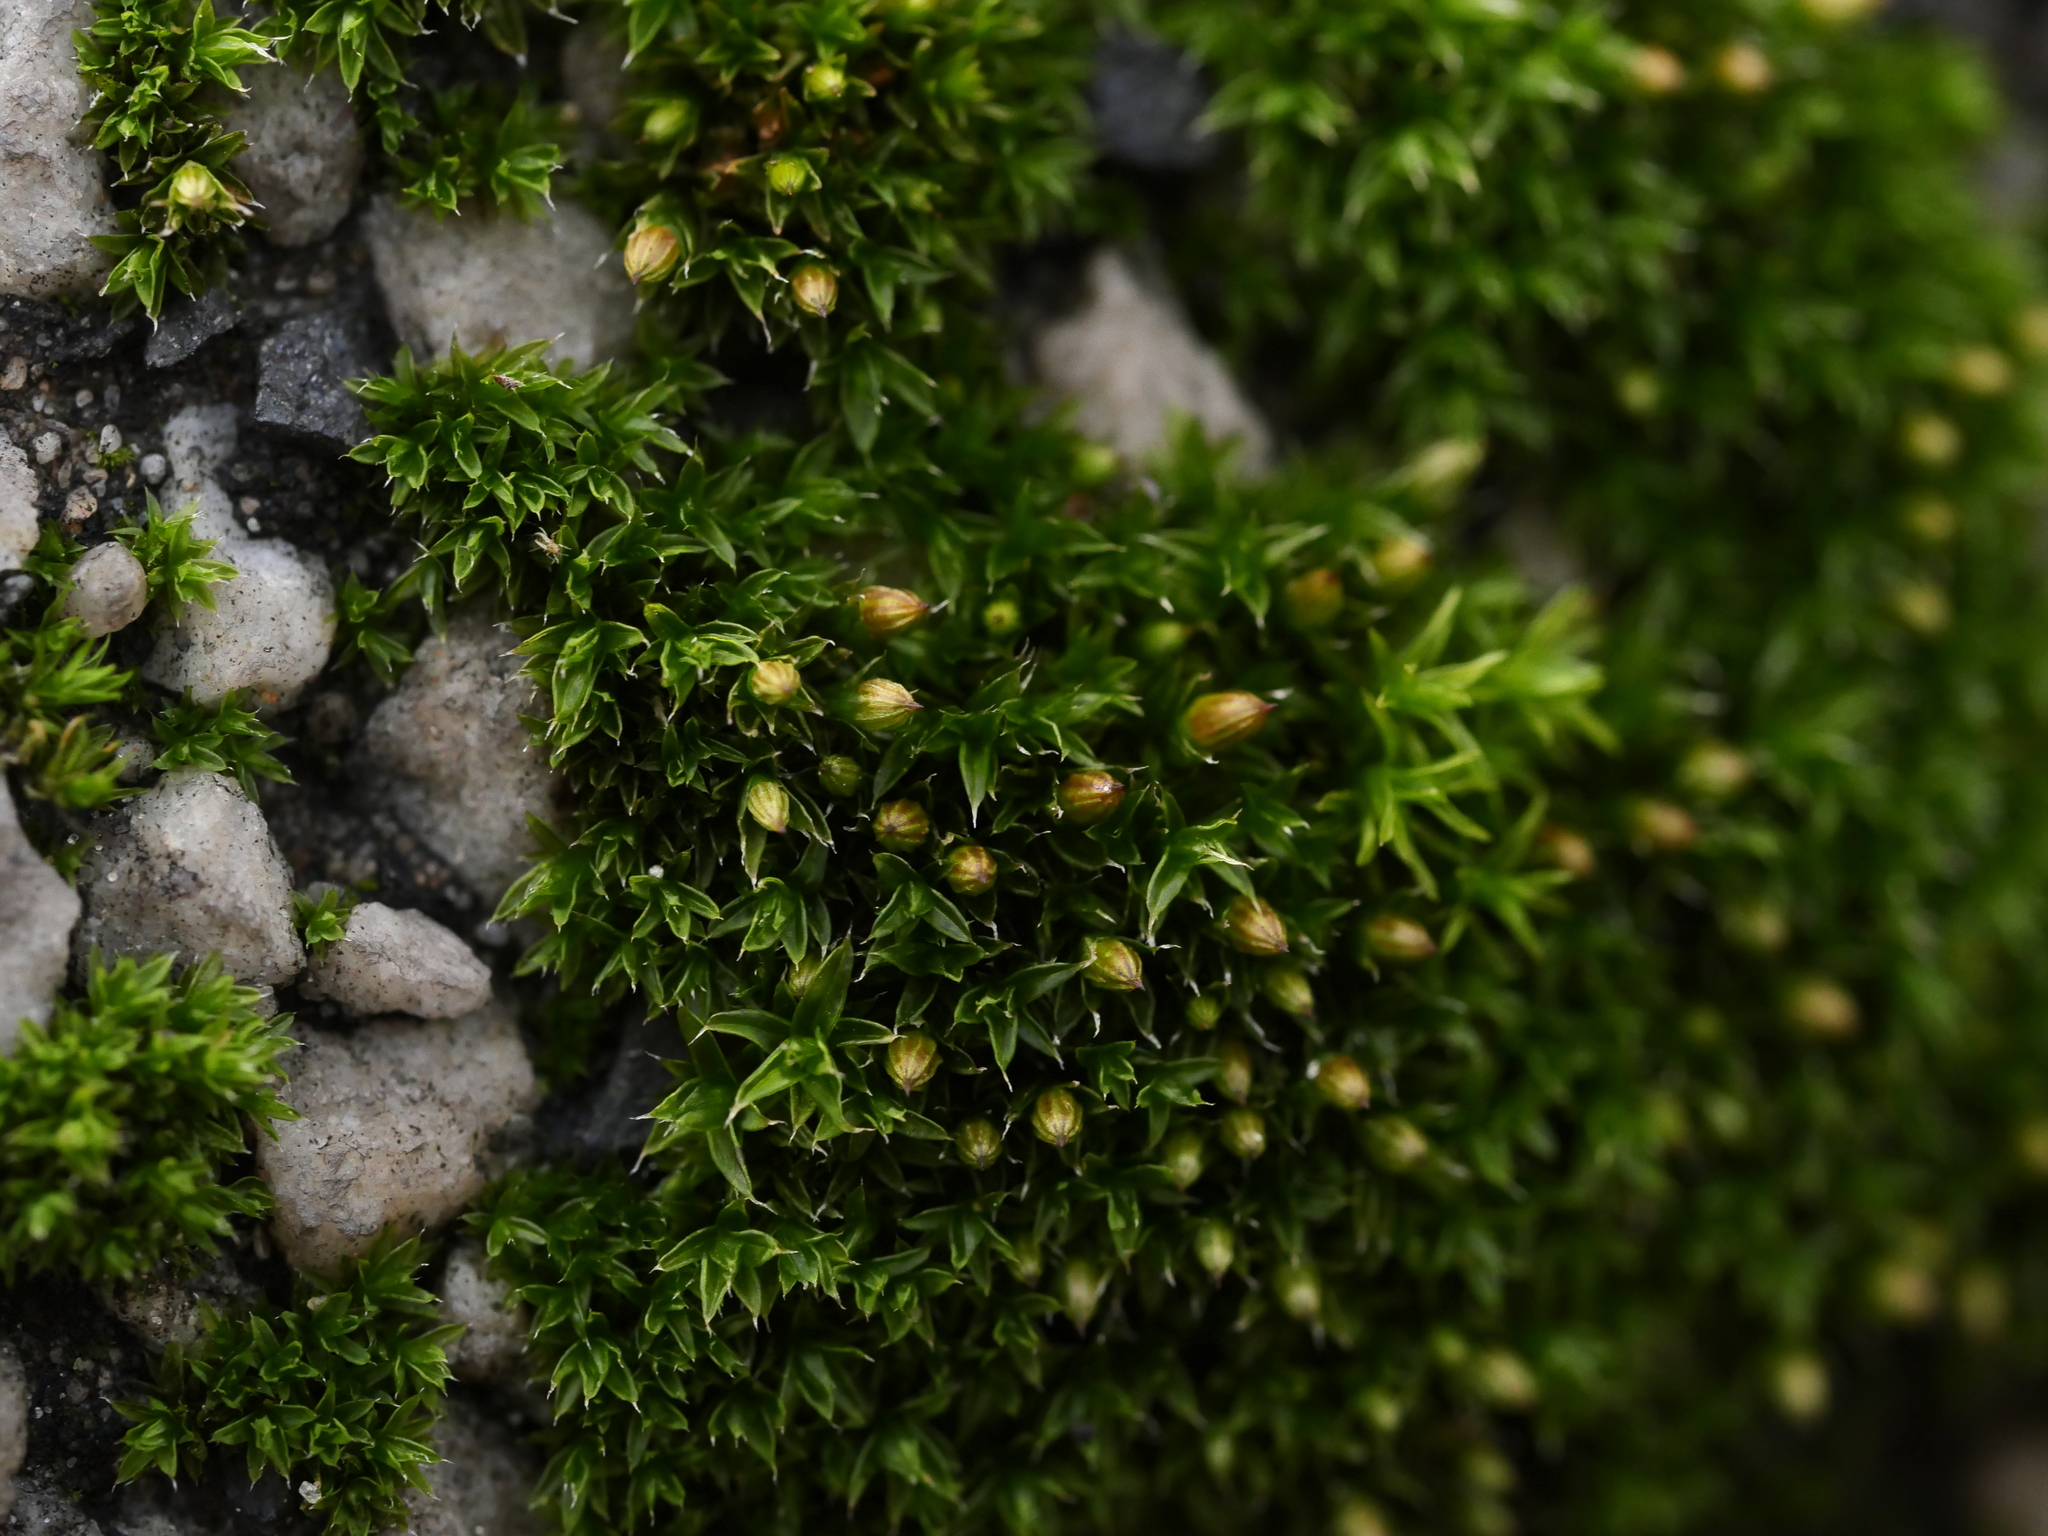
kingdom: Plantae
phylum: Bryophyta
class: Bryopsida
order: Orthotrichales
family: Orthotrichaceae
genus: Orthotrichum
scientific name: Orthotrichum diaphanum
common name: White-tipped bristle-moss
